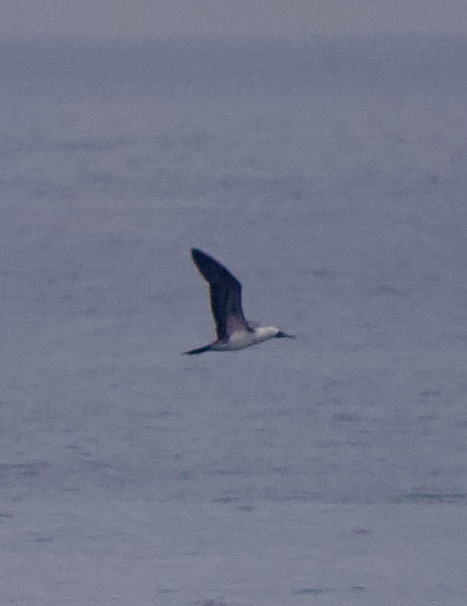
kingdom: Animalia
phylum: Chordata
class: Aves
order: Suliformes
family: Sulidae
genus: Sula
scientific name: Sula variegata
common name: Peruvian booby
